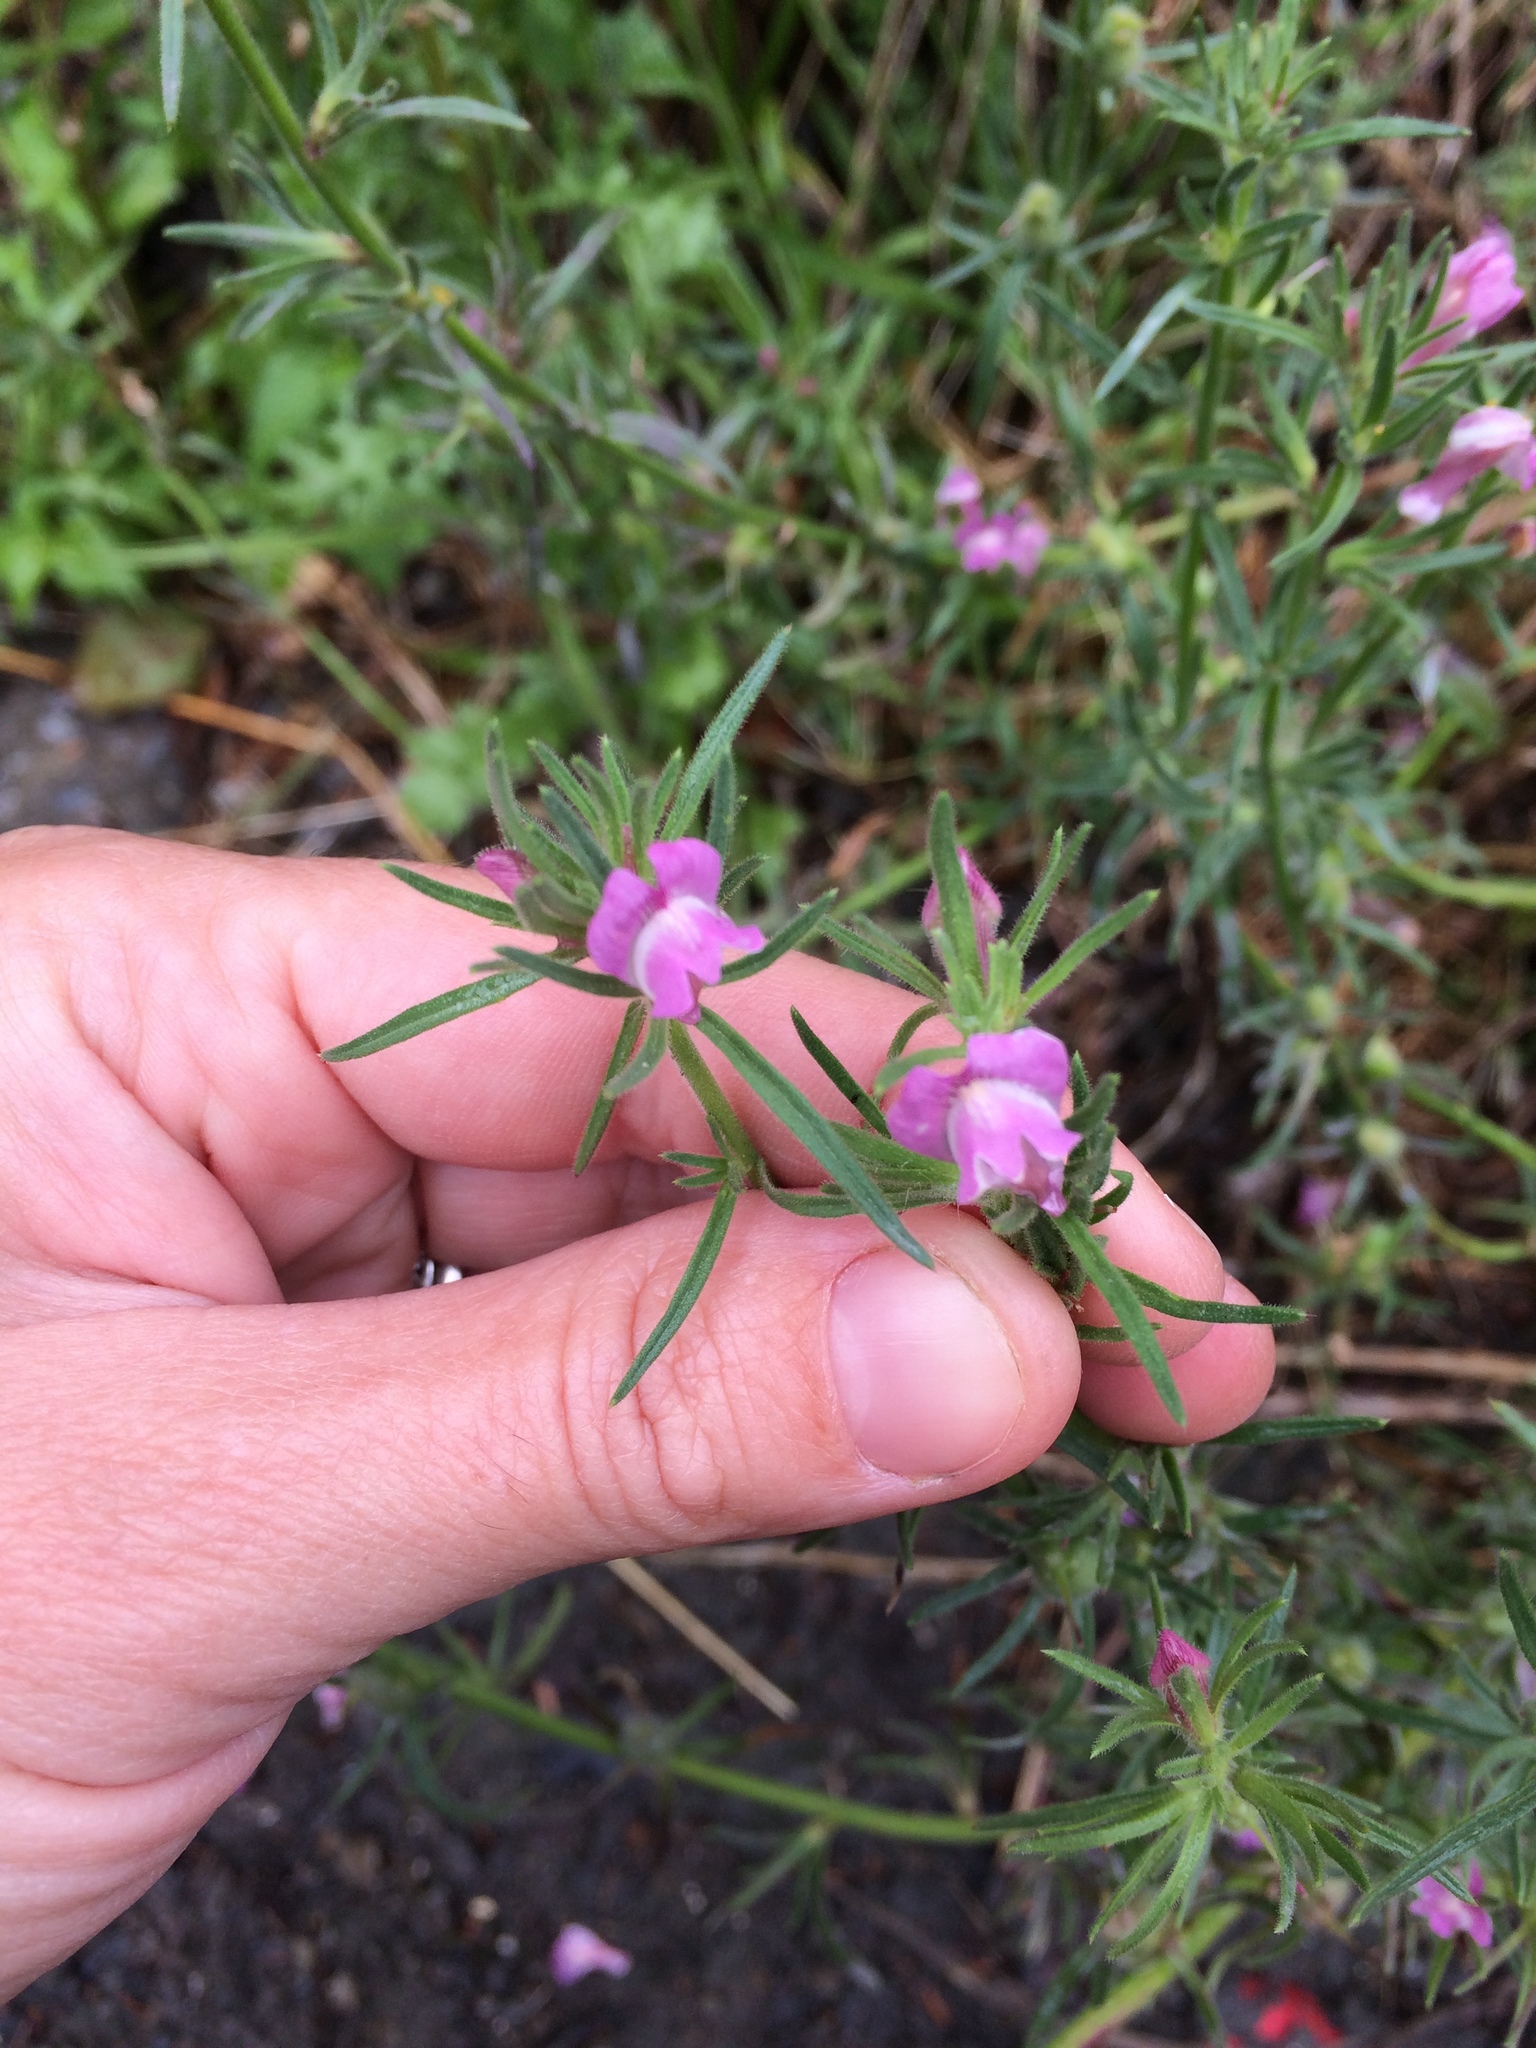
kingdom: Plantae
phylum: Tracheophyta
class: Magnoliopsida
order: Lamiales
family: Plantaginaceae
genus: Misopates
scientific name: Misopates orontium
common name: Weasel's-snout
